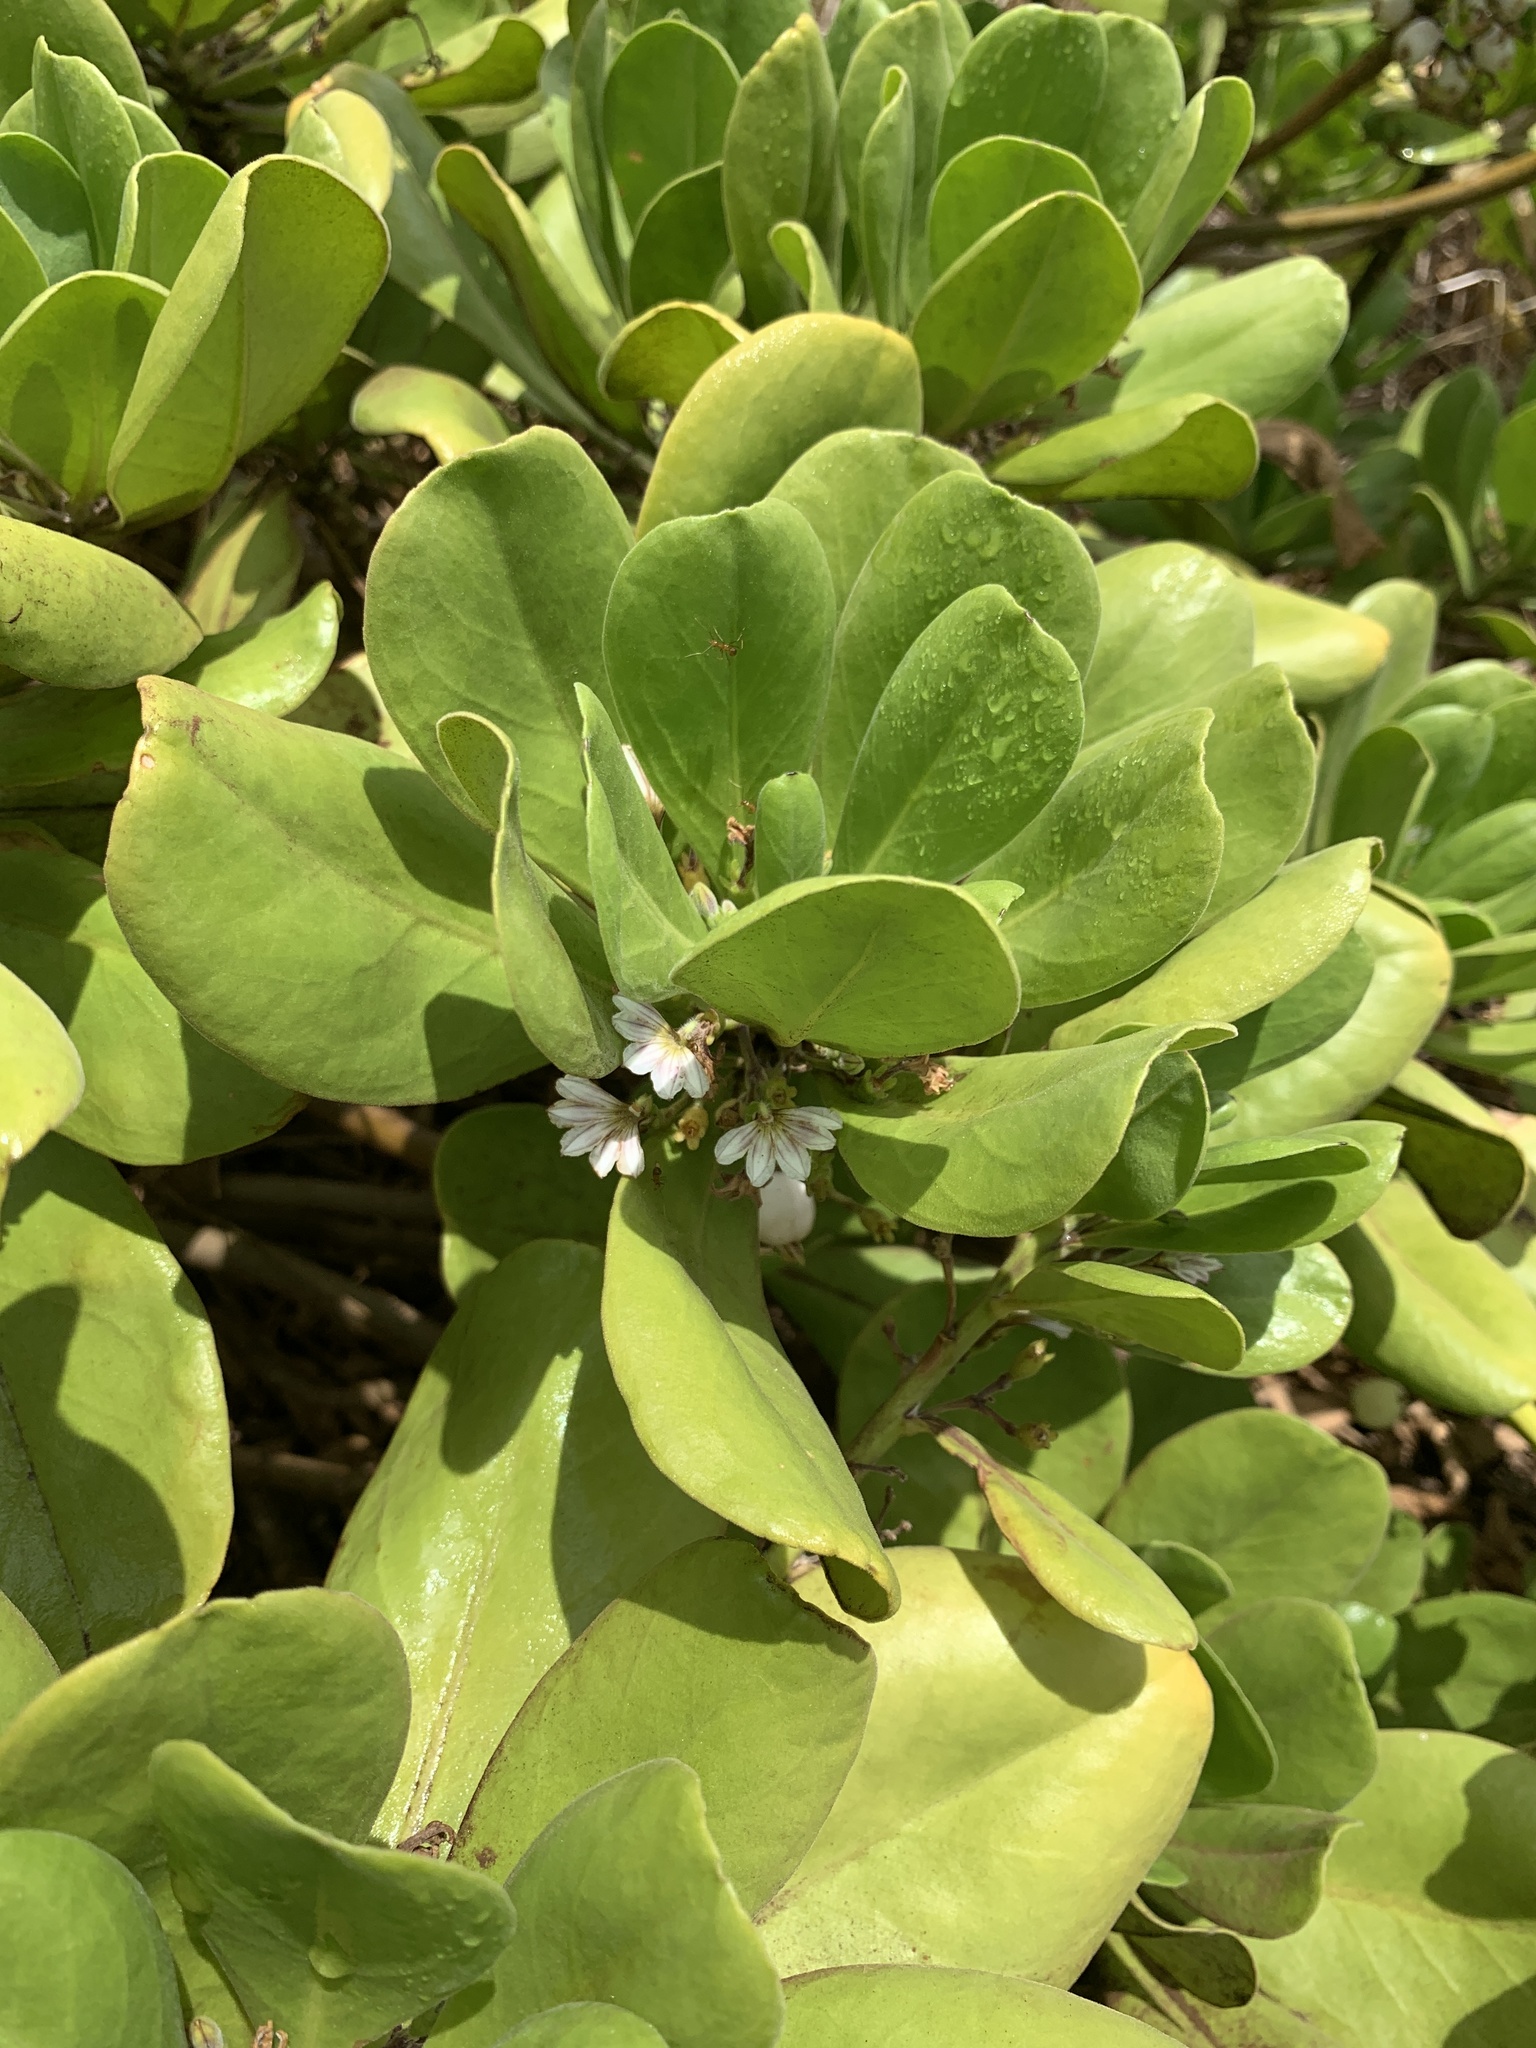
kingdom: Plantae
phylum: Tracheophyta
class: Magnoliopsida
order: Asterales
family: Goodeniaceae
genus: Scaevola
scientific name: Scaevola taccada
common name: Sea lettucetree
